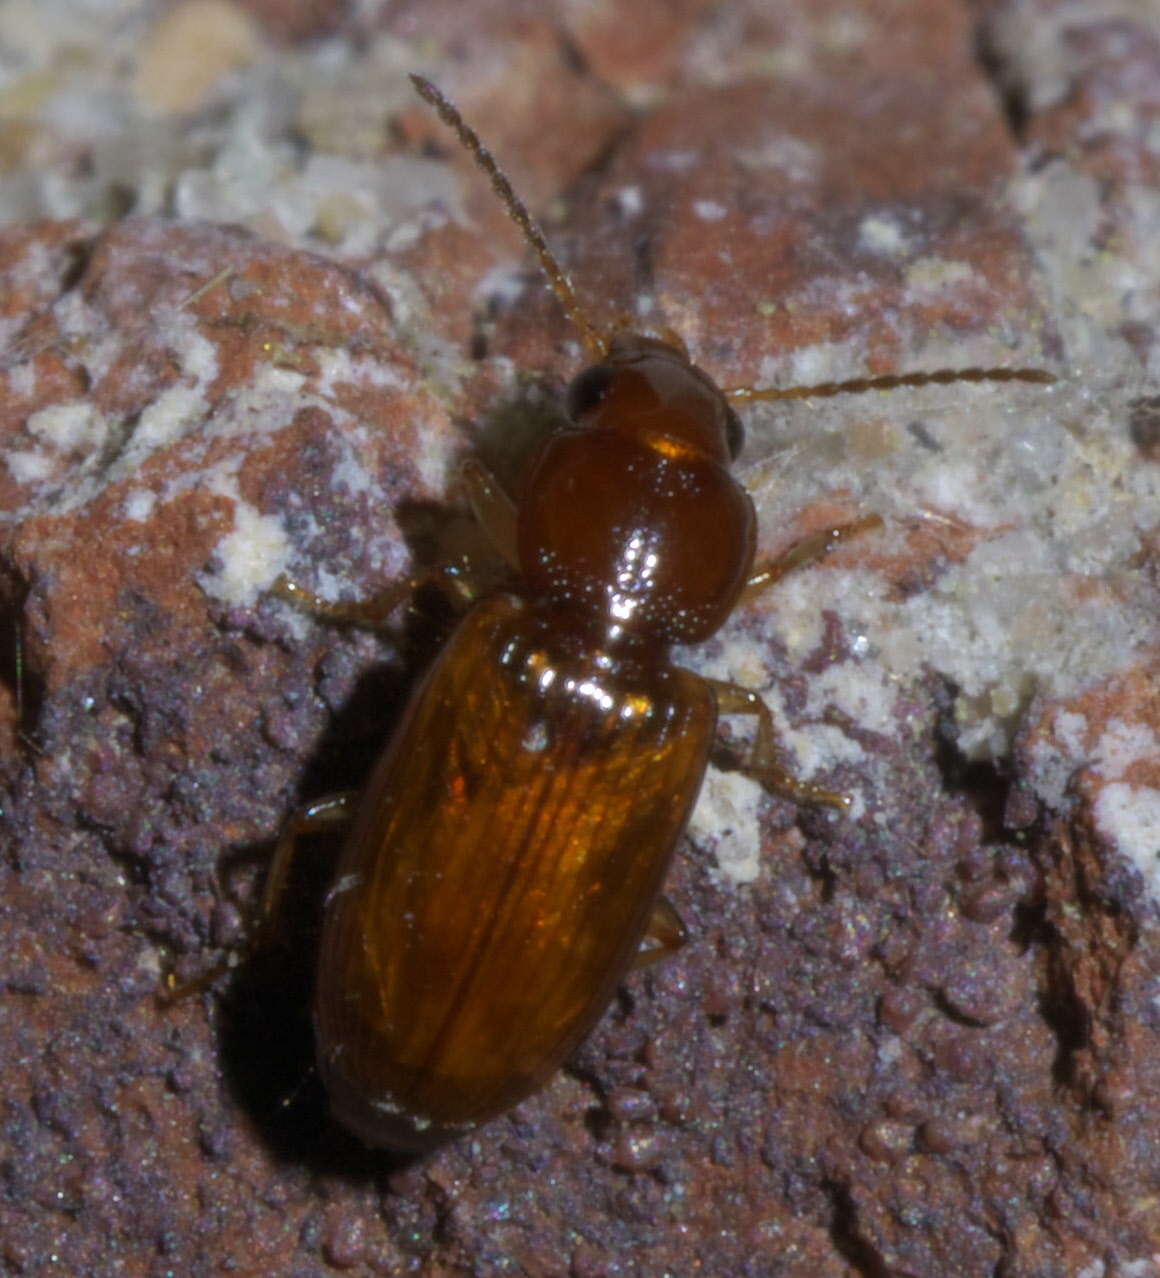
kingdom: Animalia
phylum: Arthropoda
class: Insecta
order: Coleoptera
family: Carabidae
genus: Acupalpus
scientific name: Acupalpus testaceus
